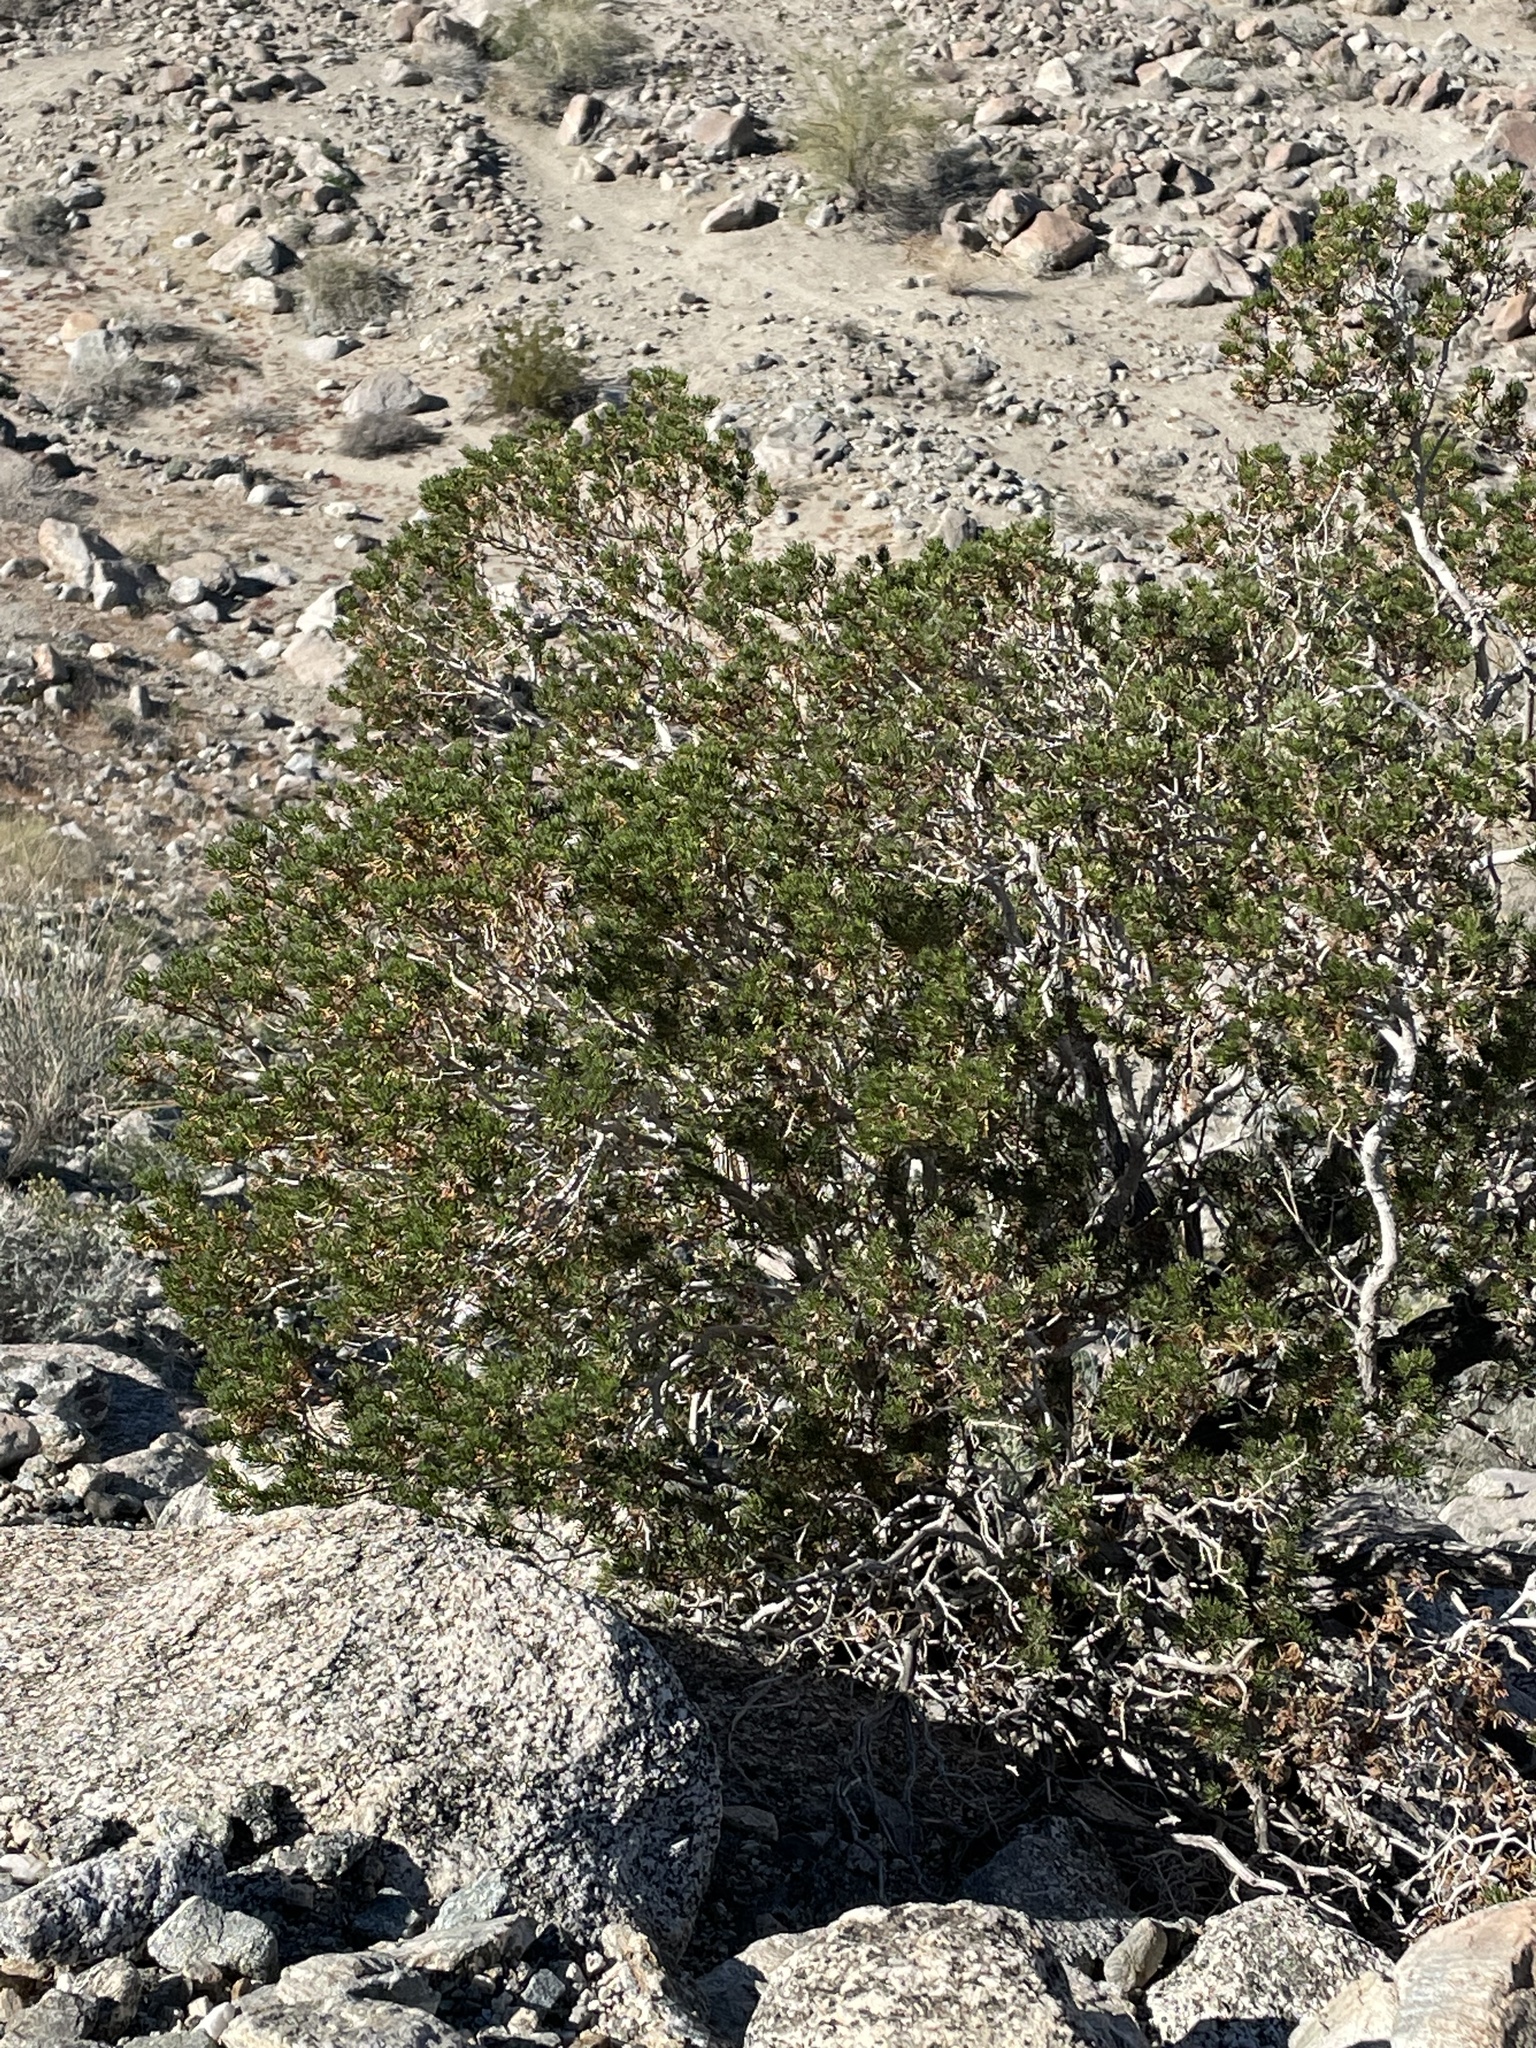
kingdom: Plantae
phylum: Tracheophyta
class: Magnoliopsida
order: Asterales
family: Asteraceae
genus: Peucephyllum
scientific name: Peucephyllum schottii
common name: Pygmy-cedar
